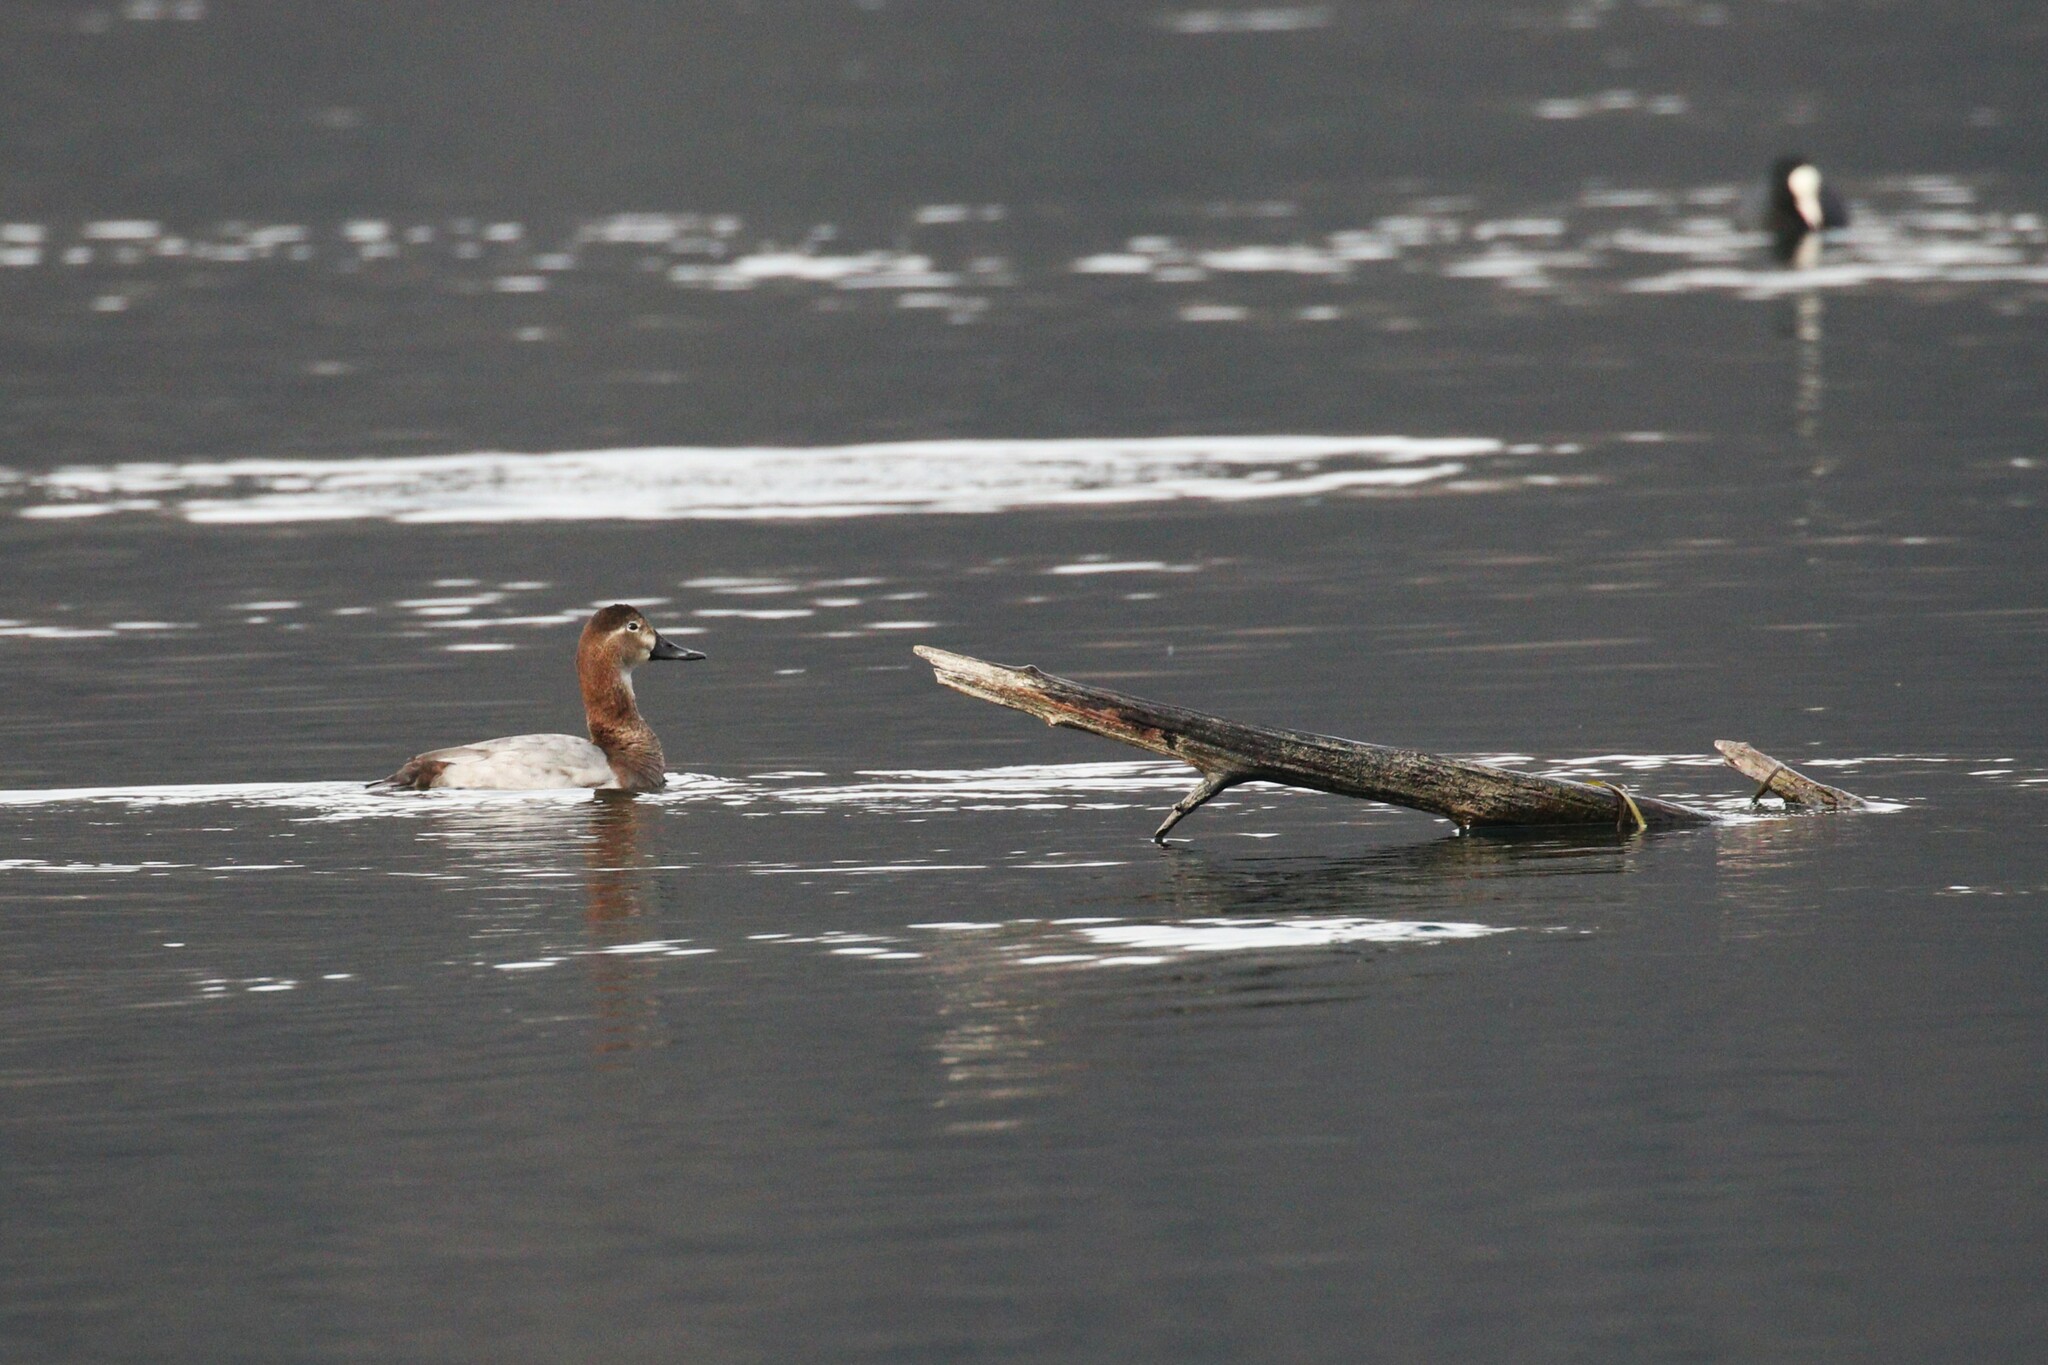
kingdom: Animalia
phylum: Chordata
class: Aves
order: Anseriformes
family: Anatidae
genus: Aythya
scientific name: Aythya ferina
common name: Common pochard
